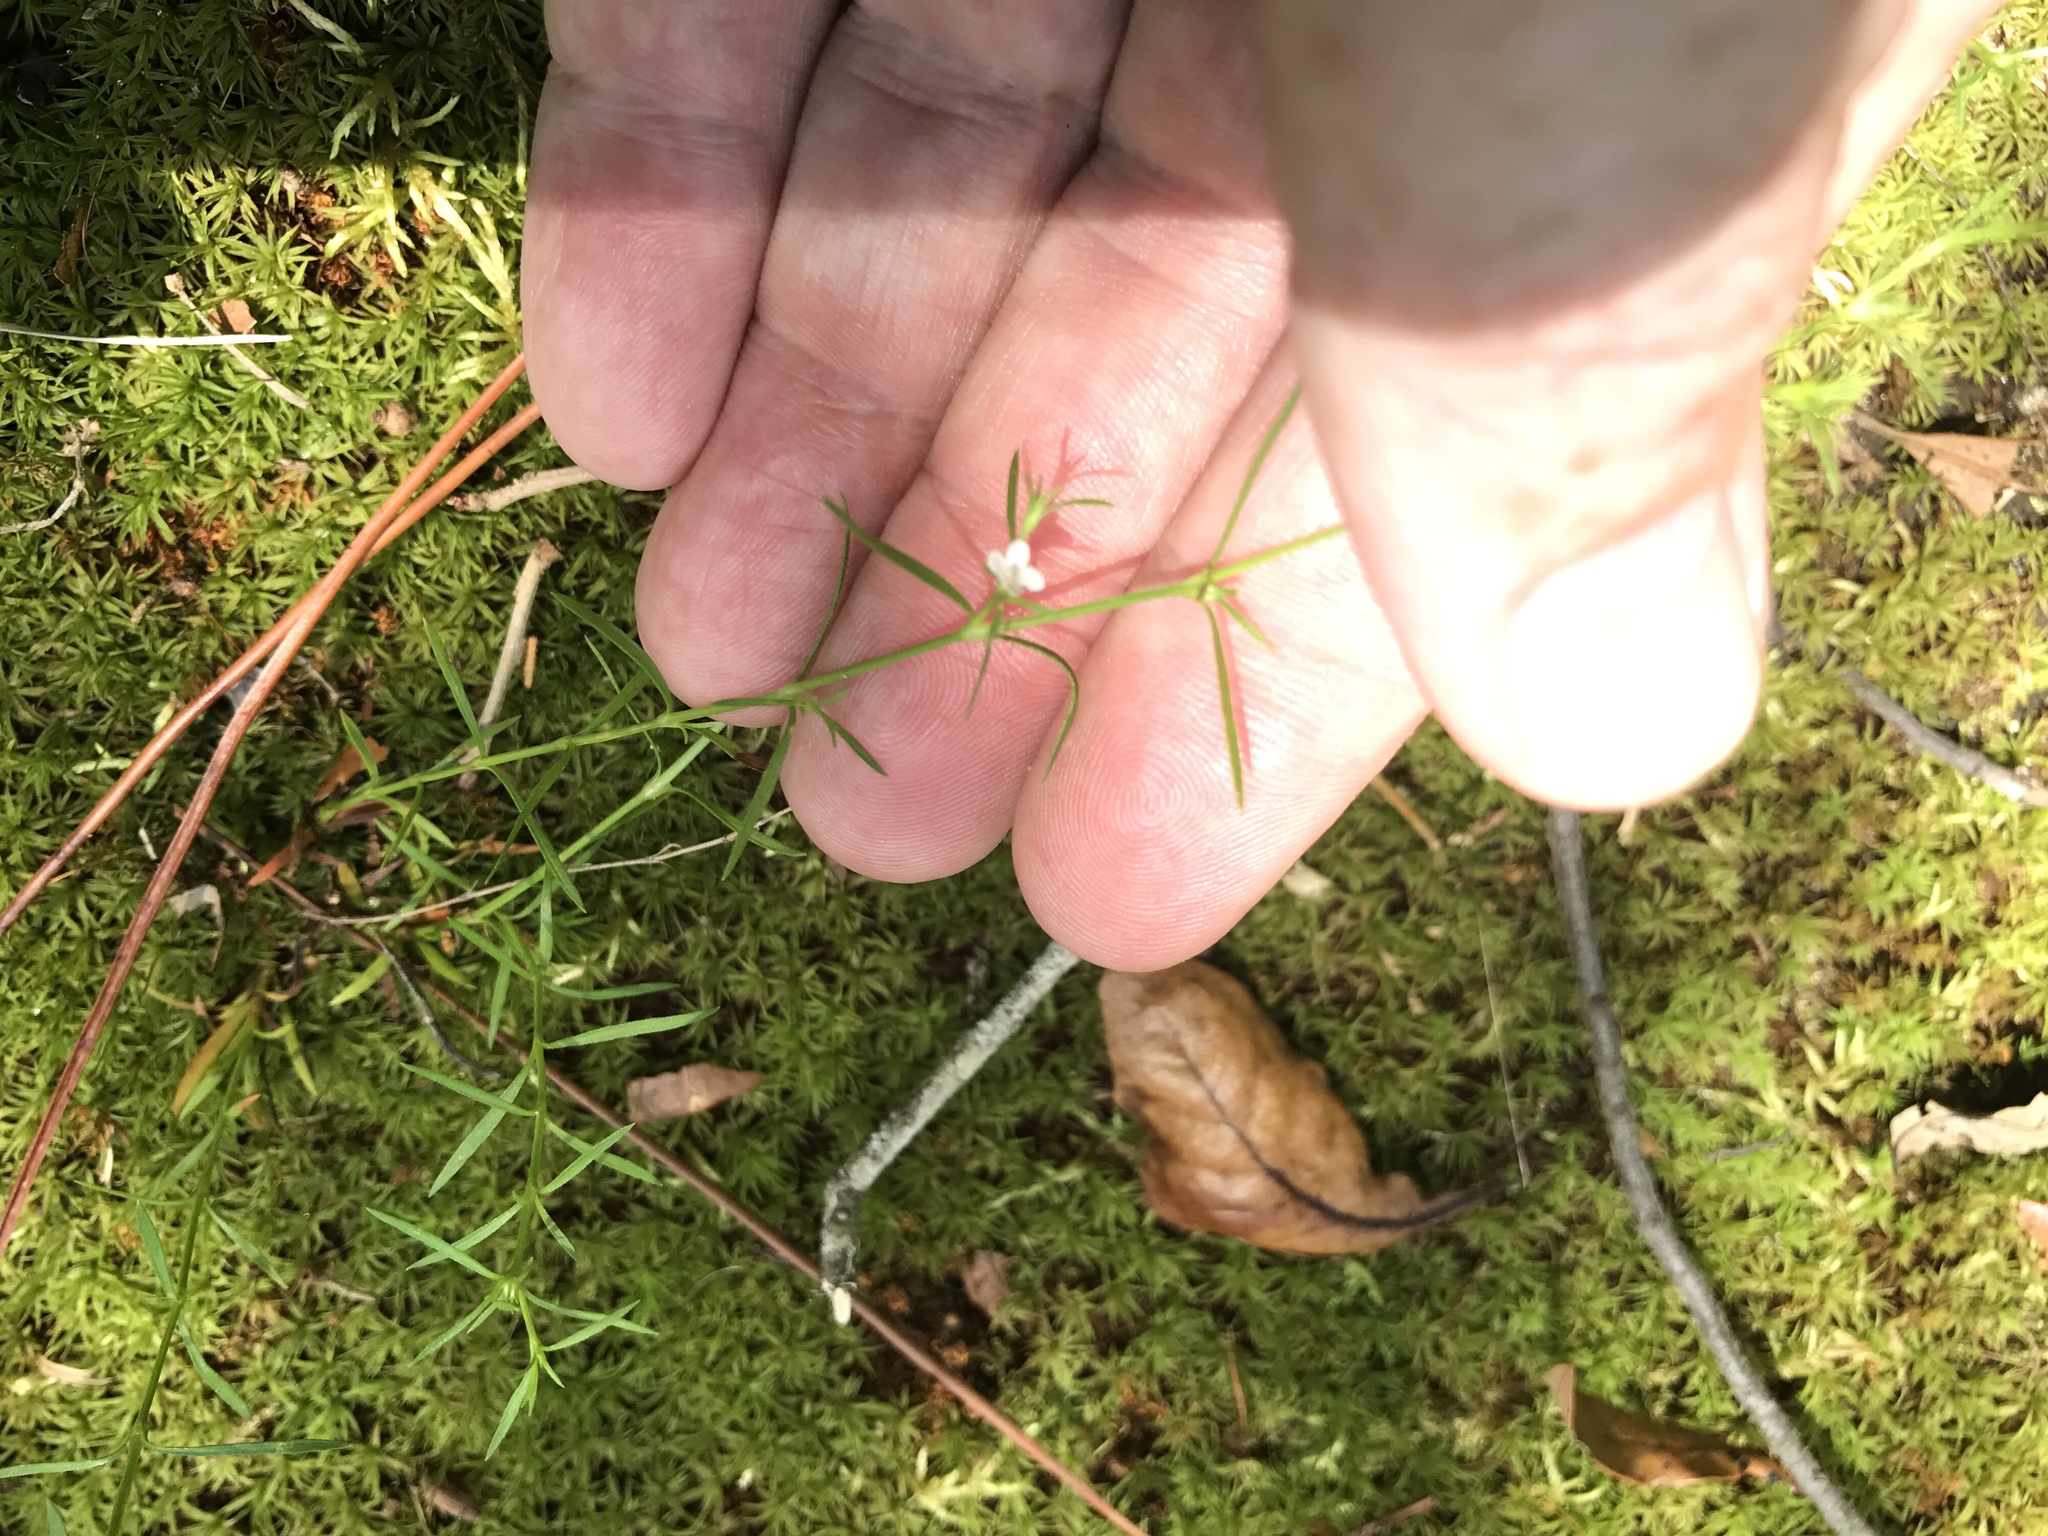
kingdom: Plantae
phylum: Tracheophyta
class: Magnoliopsida
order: Lamiales
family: Tetrachondraceae
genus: Polypremum
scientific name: Polypremum procumbens
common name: Juniper-leaf
